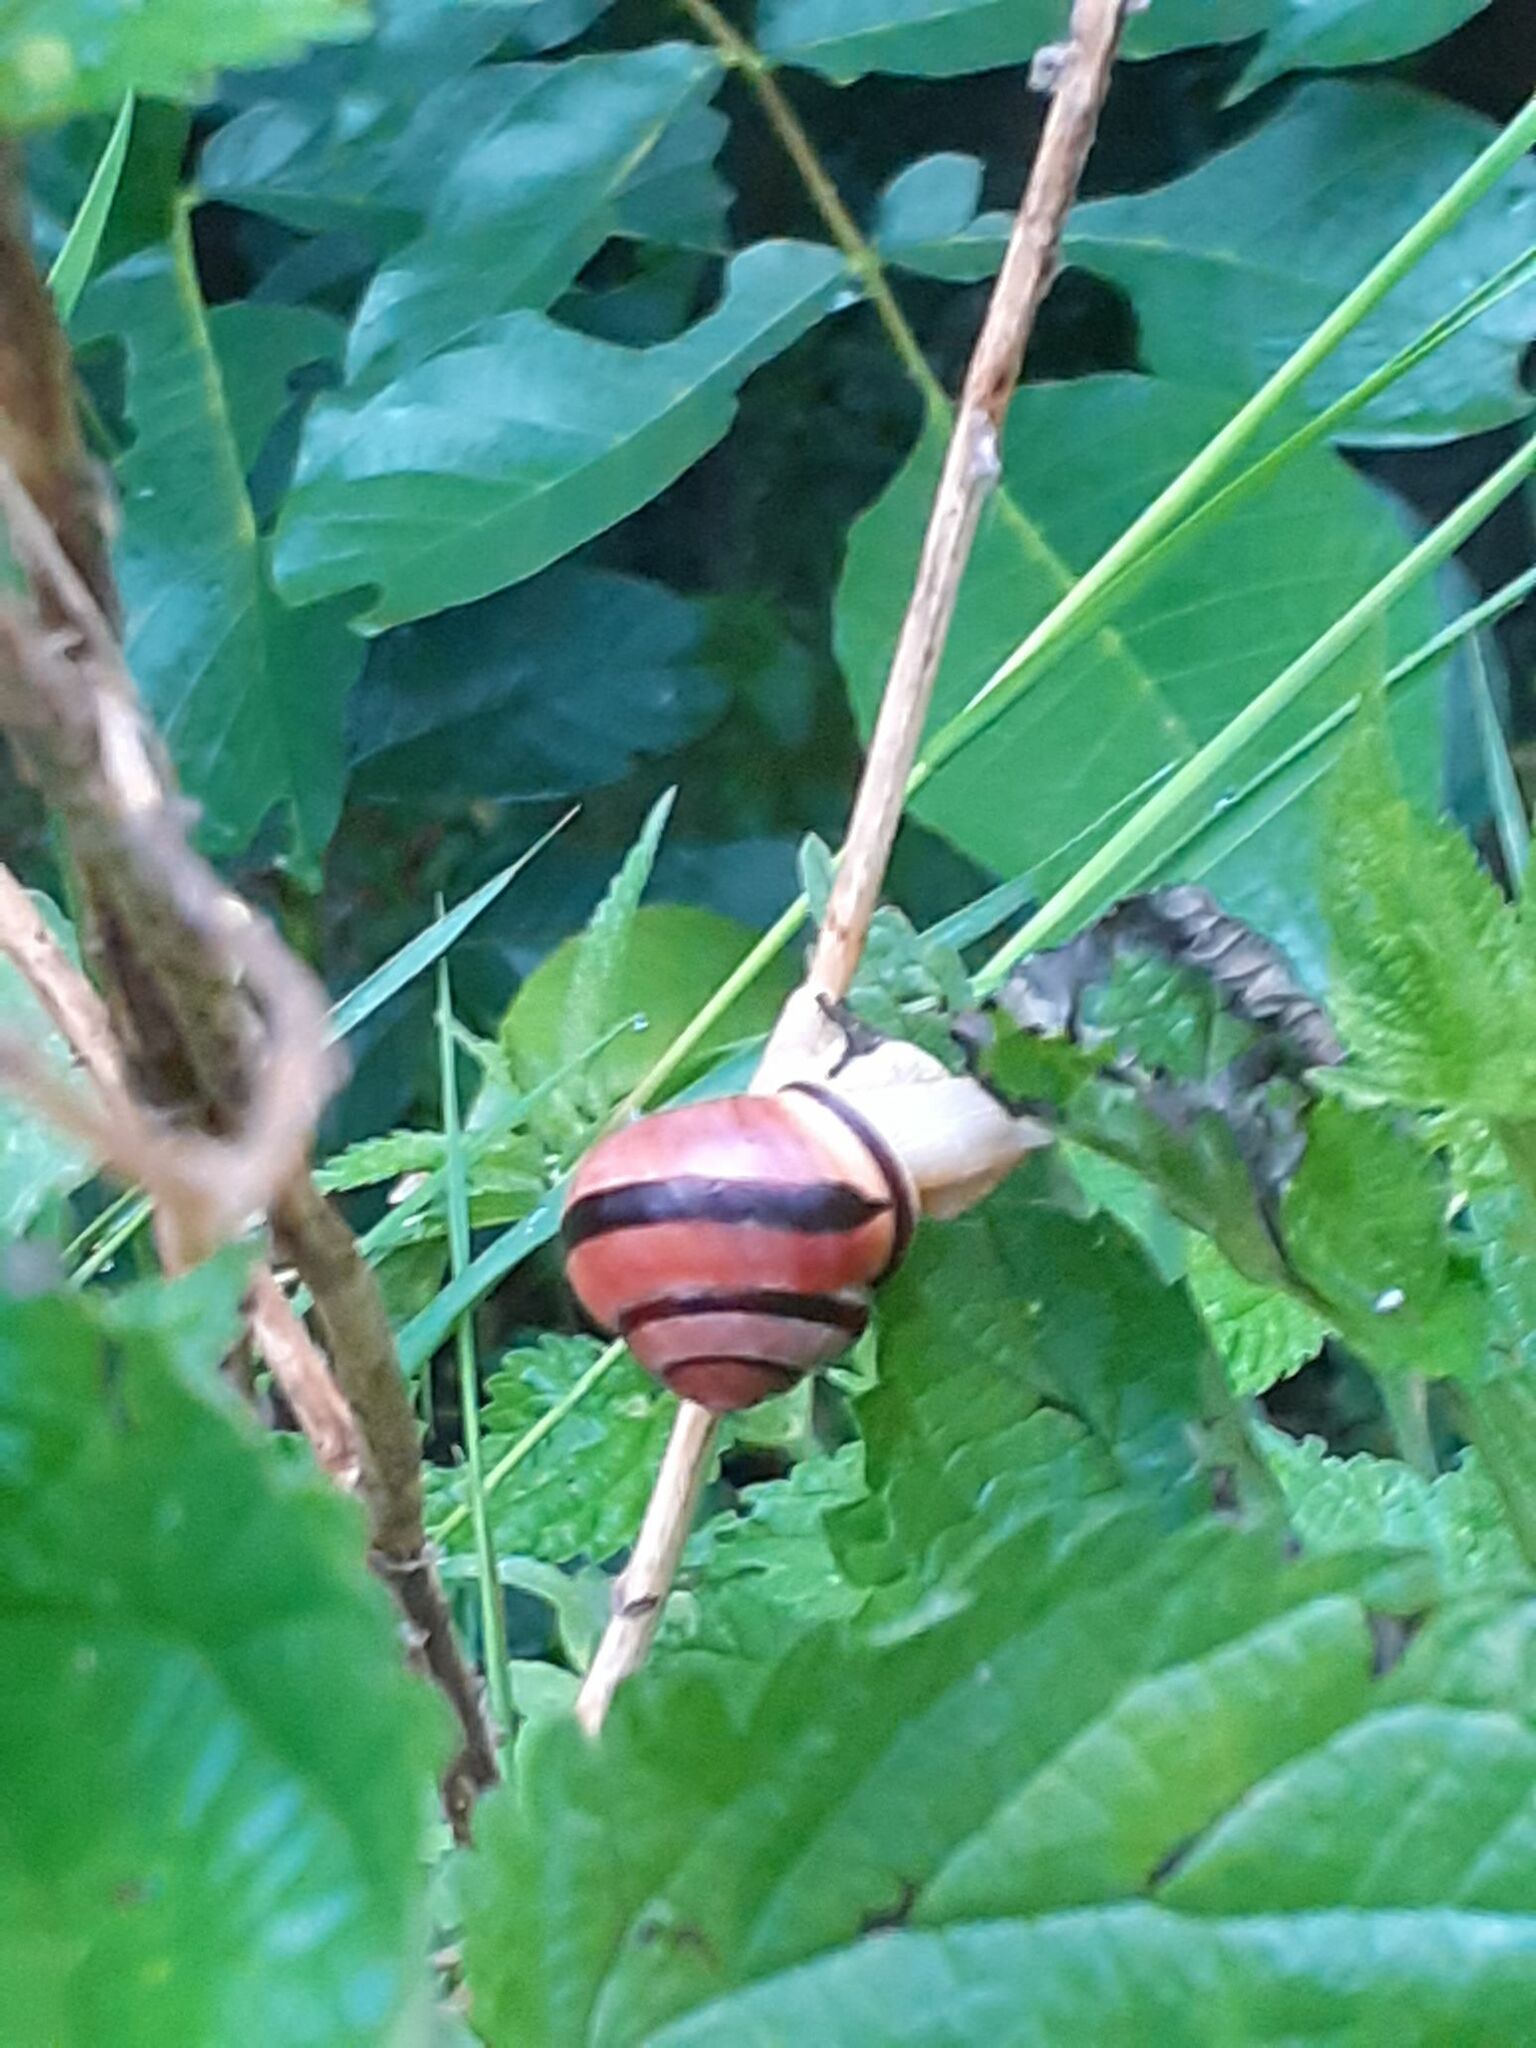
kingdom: Animalia
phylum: Mollusca
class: Gastropoda
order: Stylommatophora
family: Helicidae
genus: Cepaea
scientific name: Cepaea nemoralis
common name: Grovesnail
